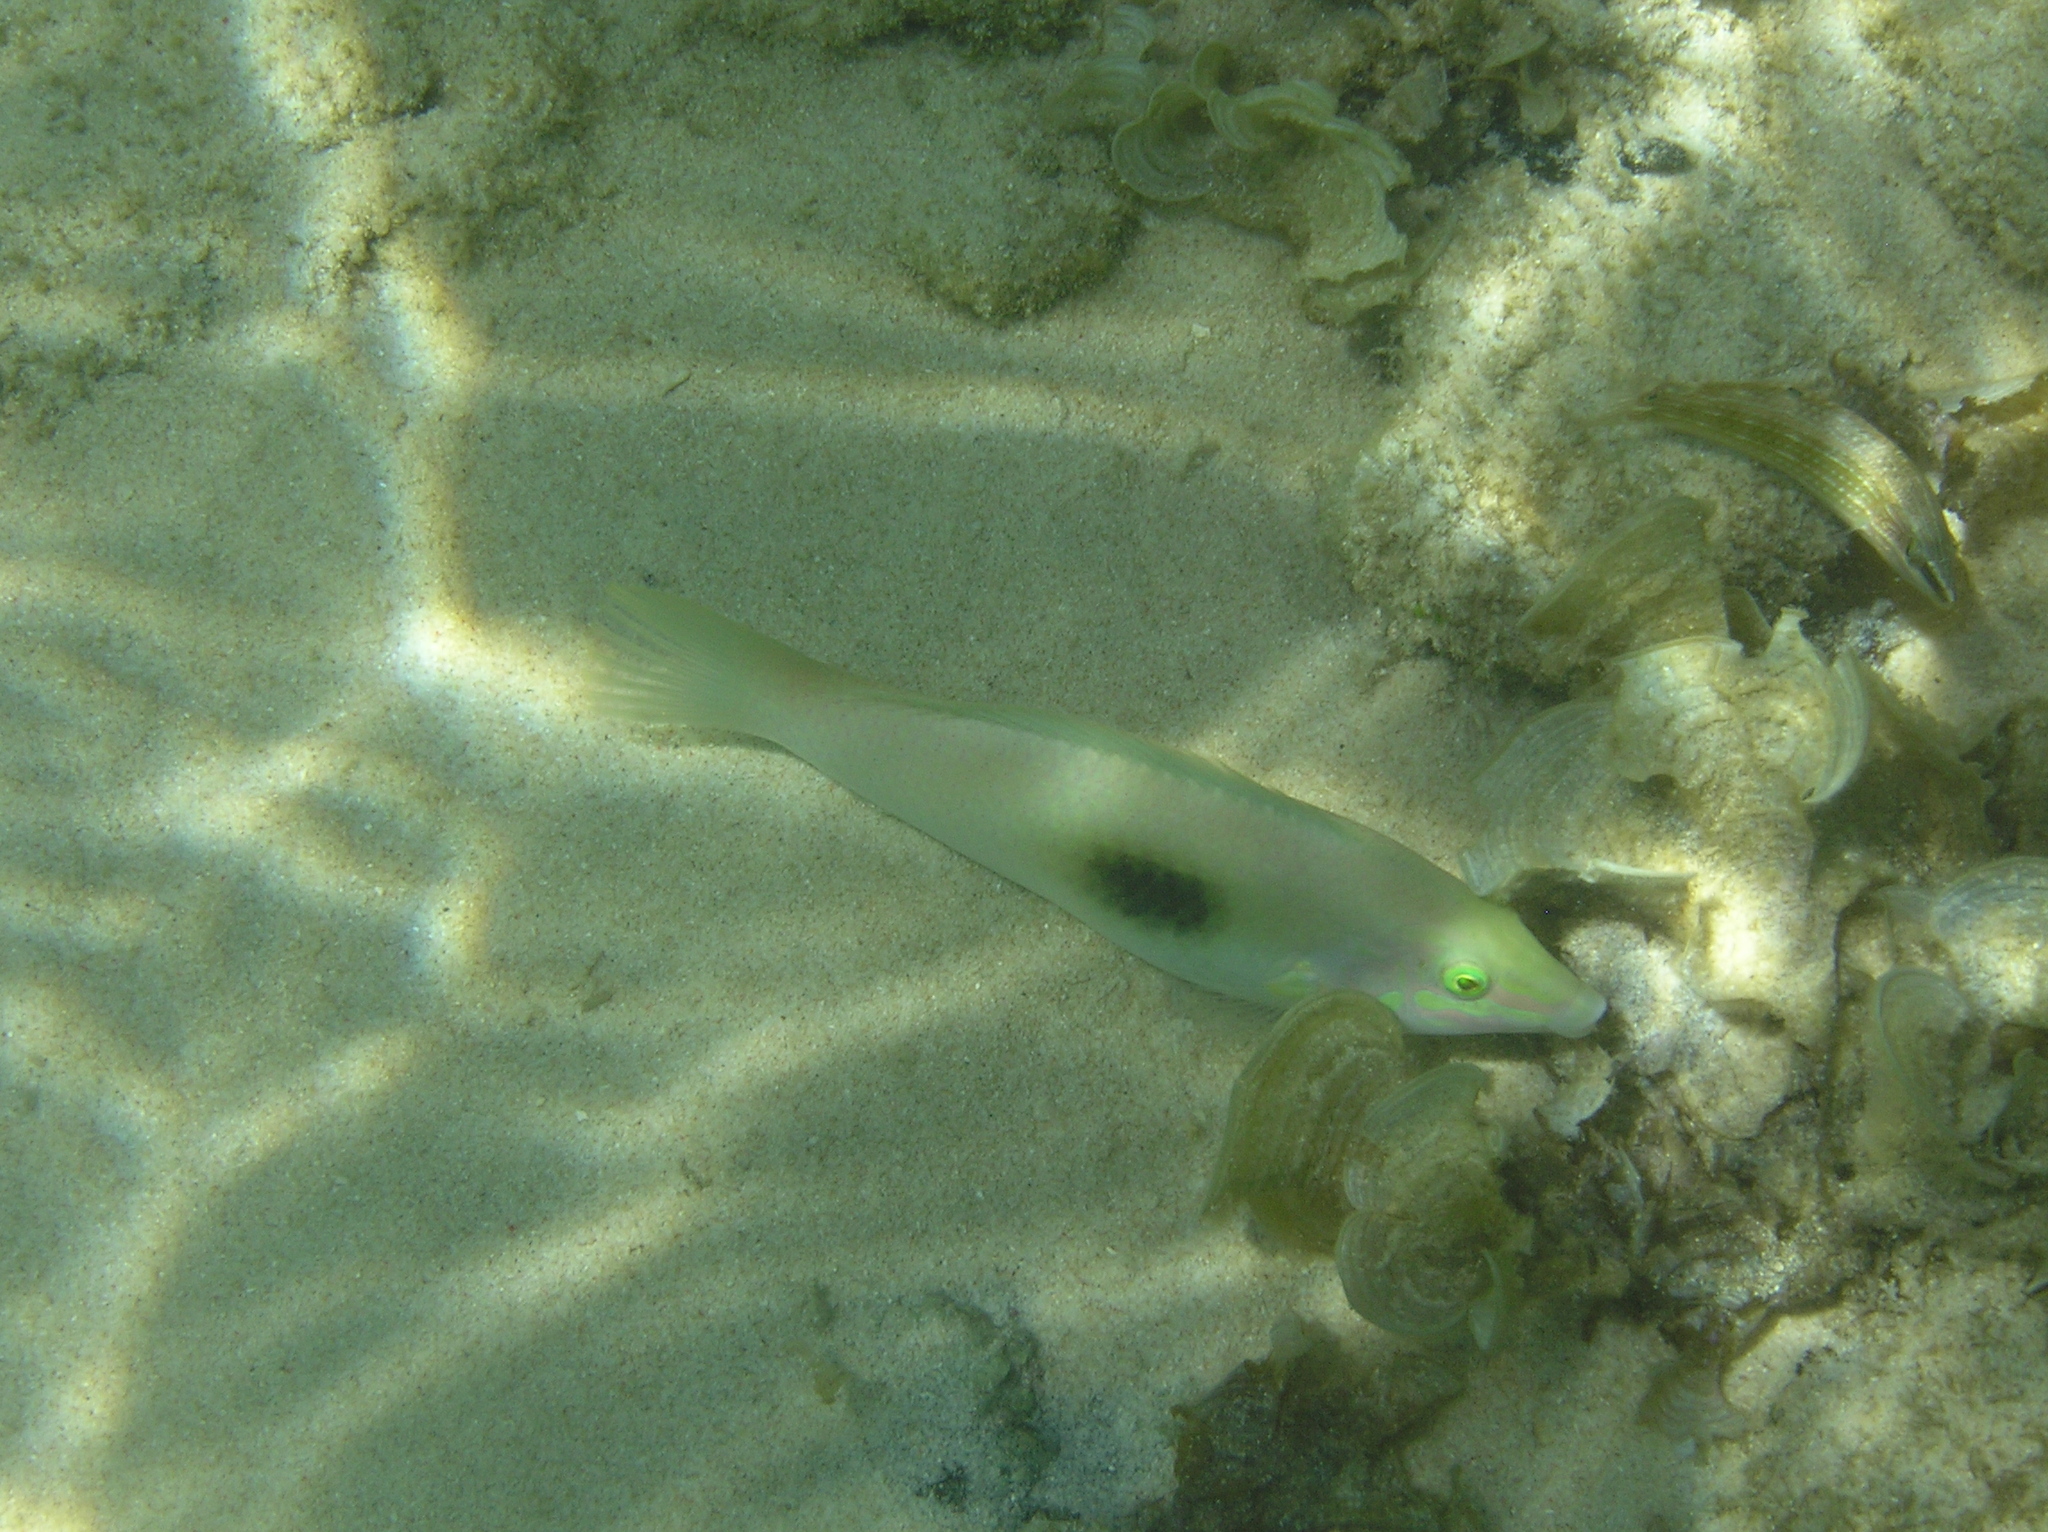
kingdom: Animalia
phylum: Chordata
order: Perciformes
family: Labridae
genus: Halichoeres
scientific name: Halichoeres chloropterus
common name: Pastel-green wrasse
